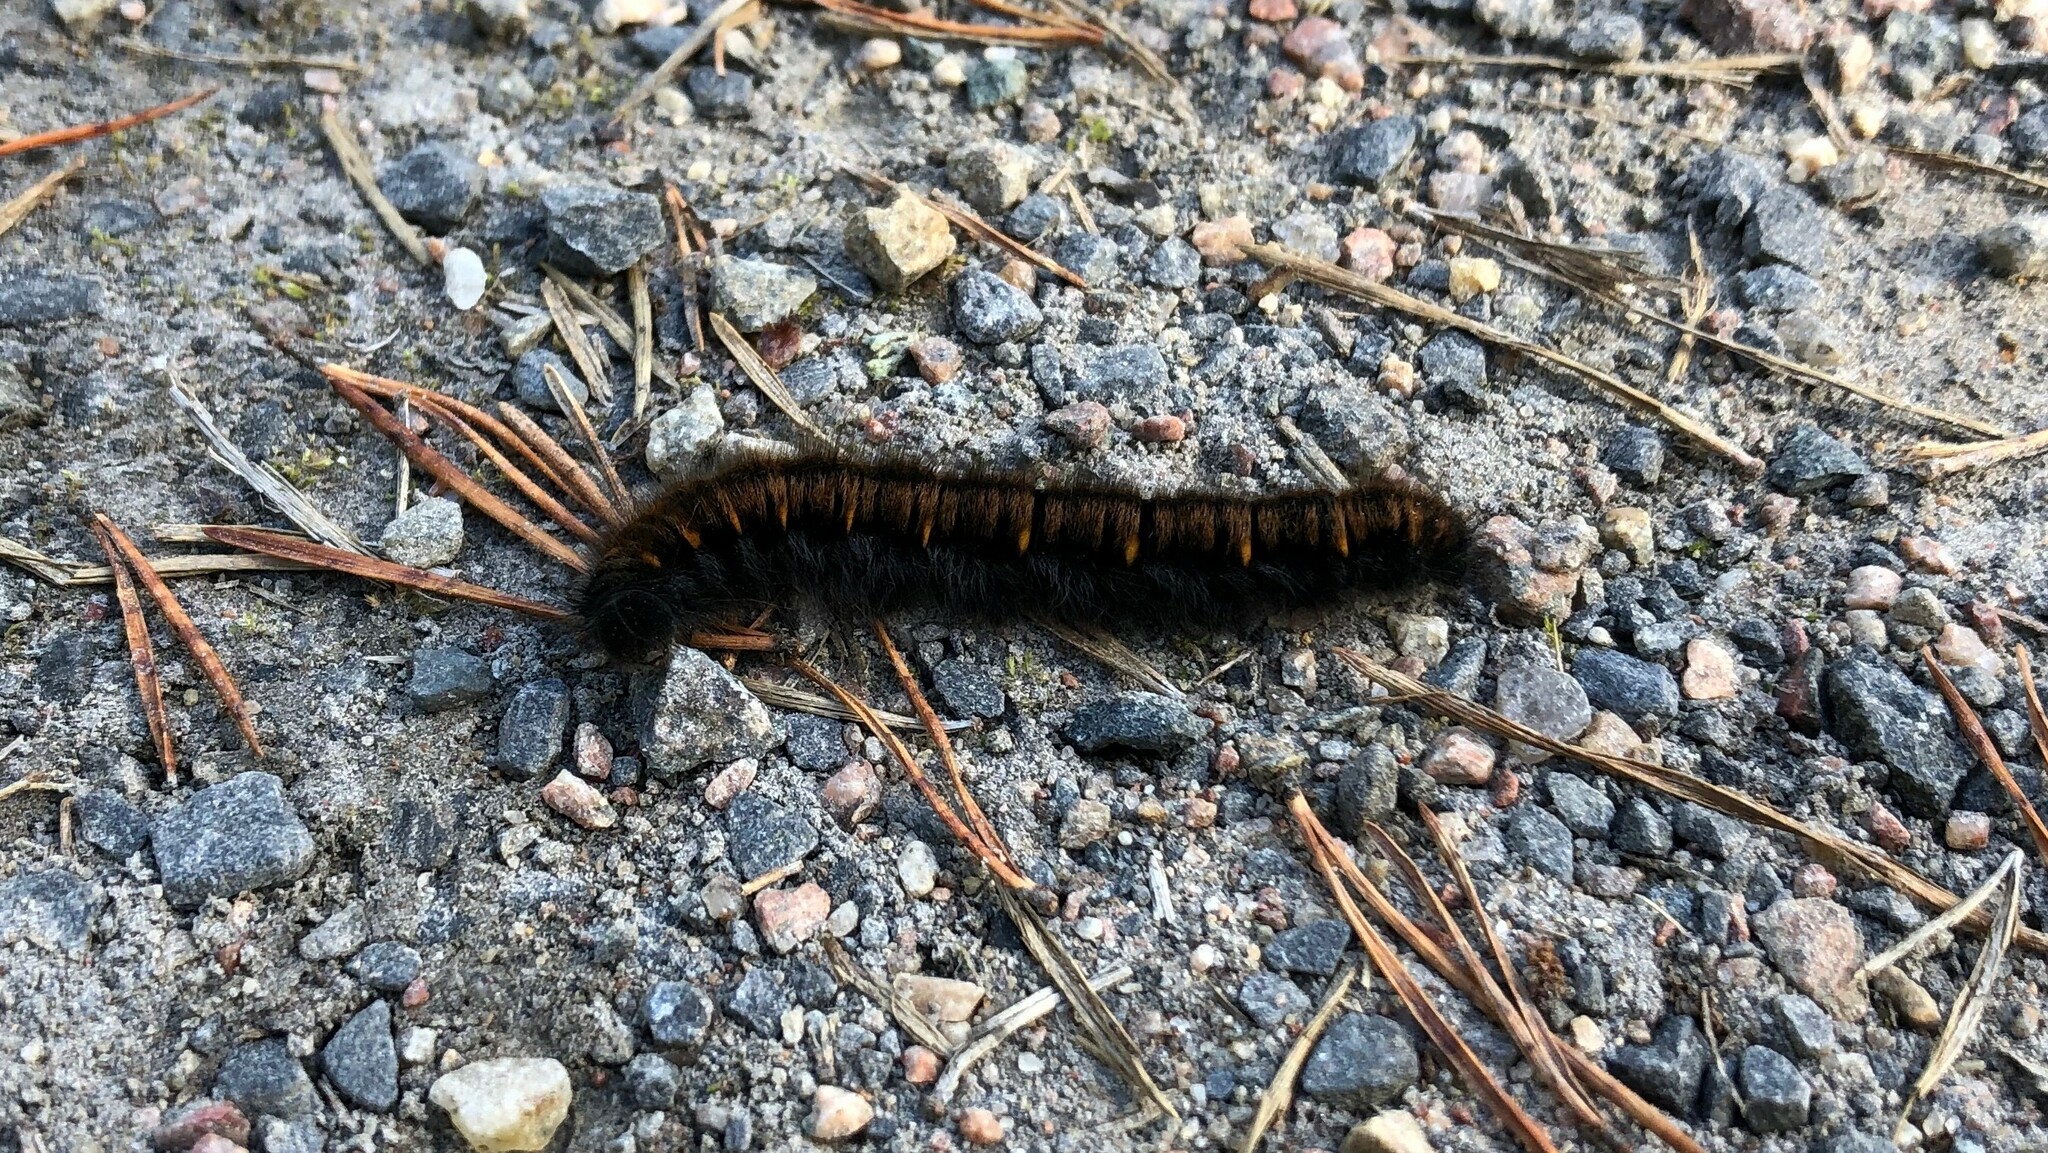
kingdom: Animalia
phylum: Arthropoda
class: Insecta
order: Lepidoptera
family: Lasiocampidae
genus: Macrothylacia
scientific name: Macrothylacia rubi
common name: Fox moth
